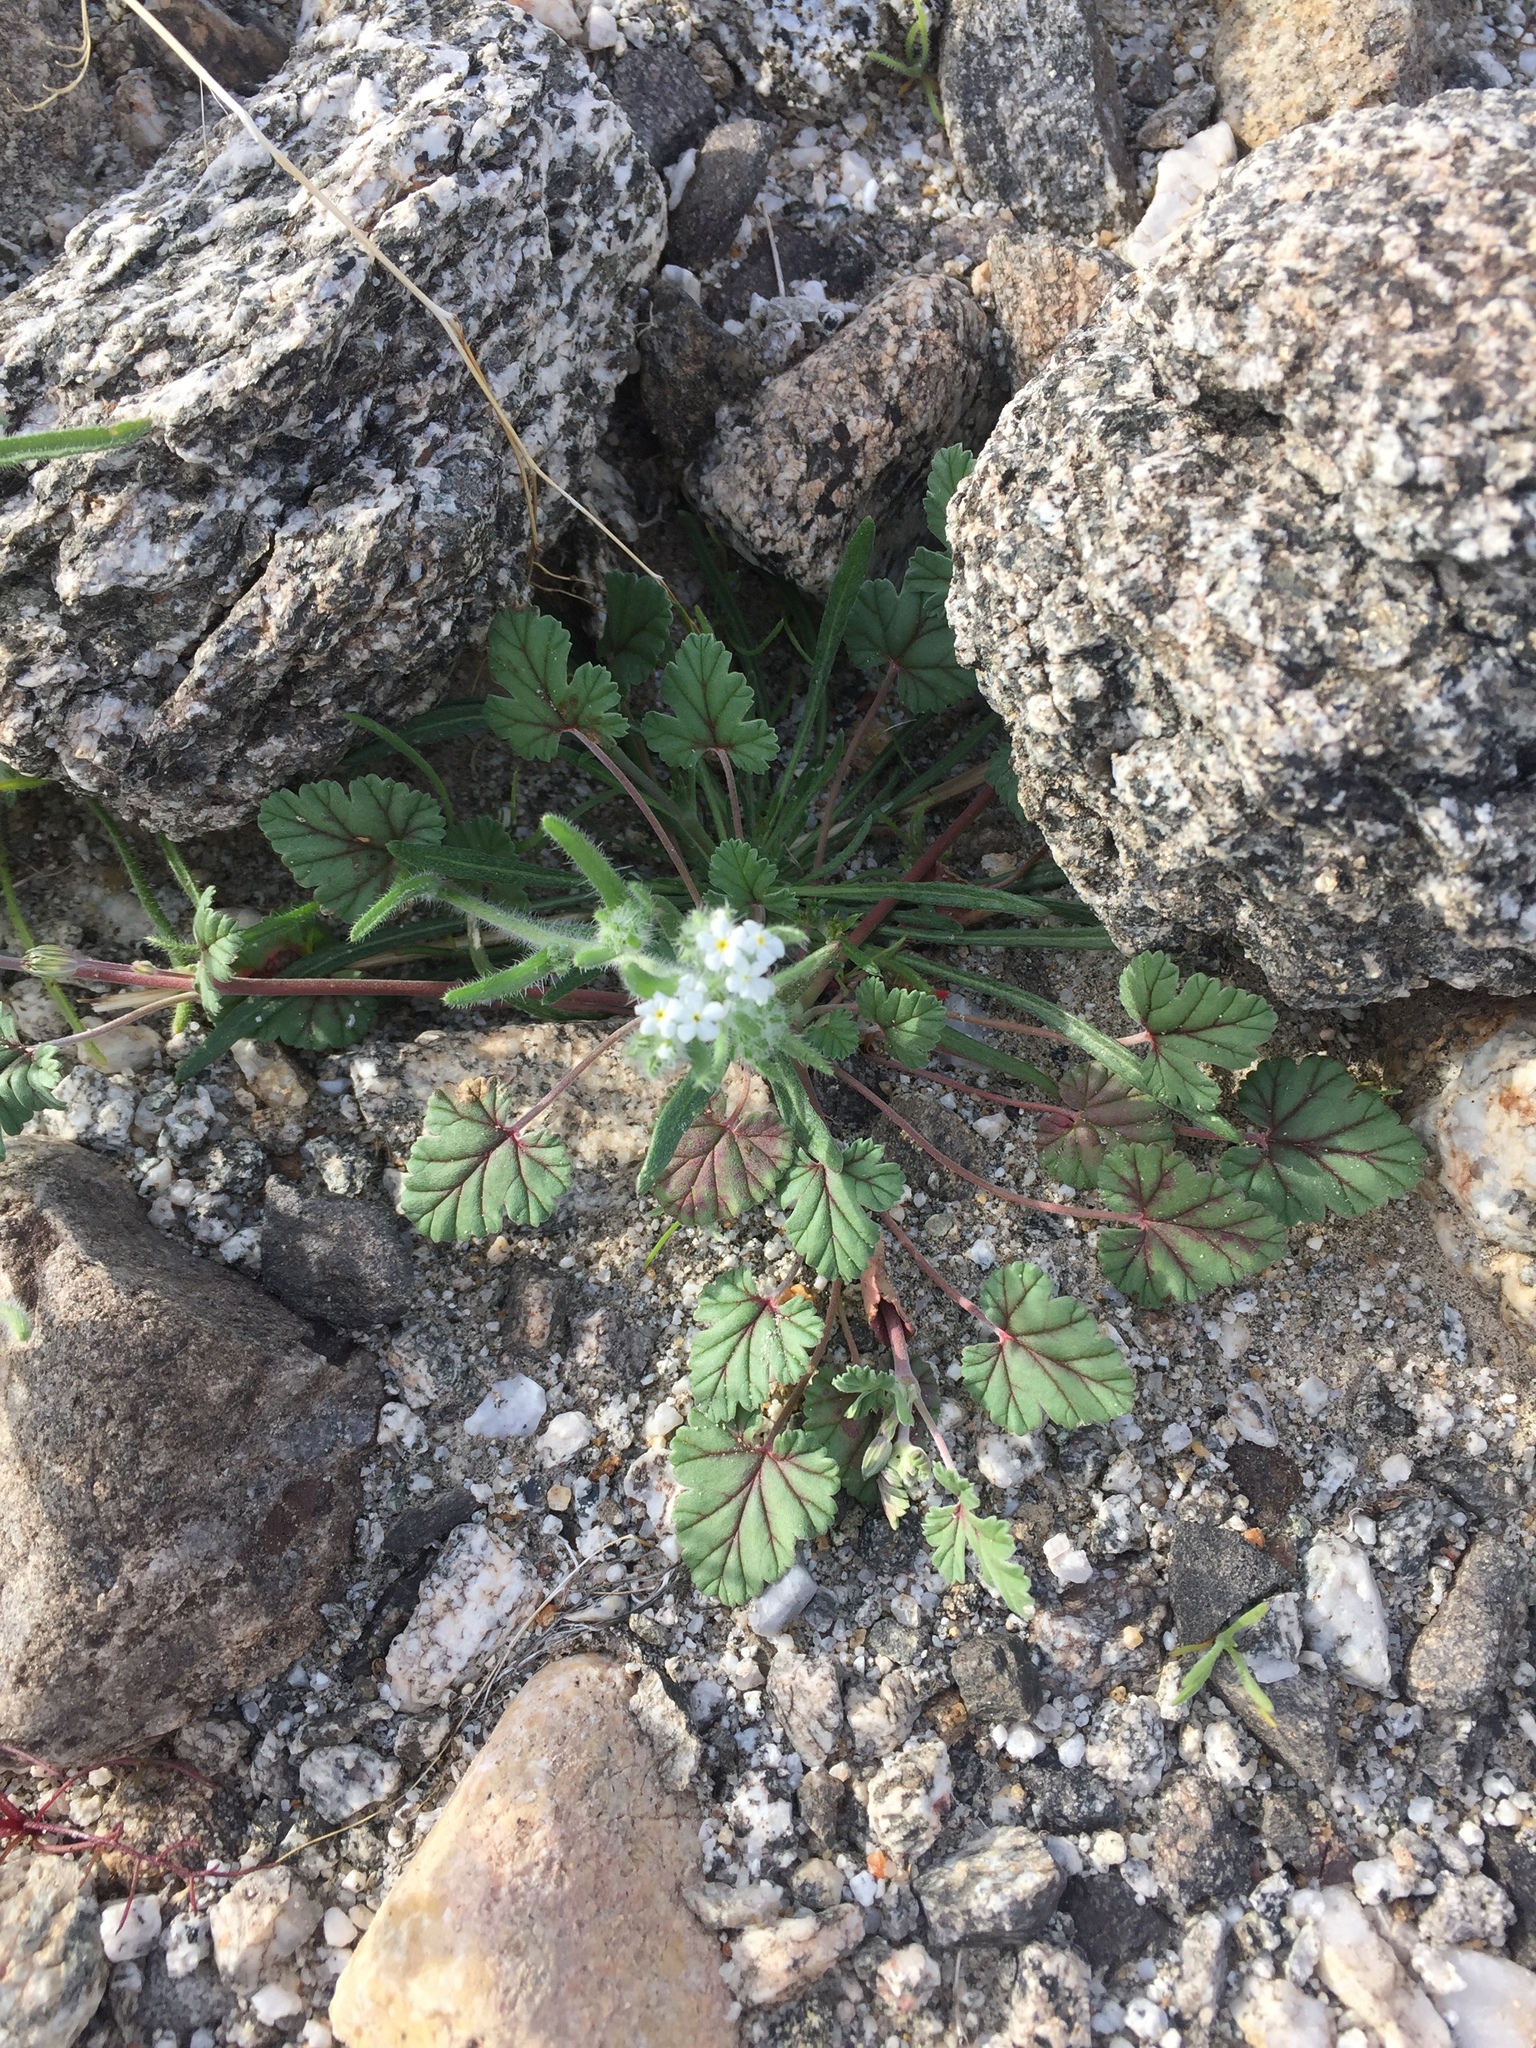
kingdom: Plantae
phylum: Tracheophyta
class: Magnoliopsida
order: Geraniales
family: Geraniaceae
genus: Erodium
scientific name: Erodium texanum
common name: Texas stork's-bill
